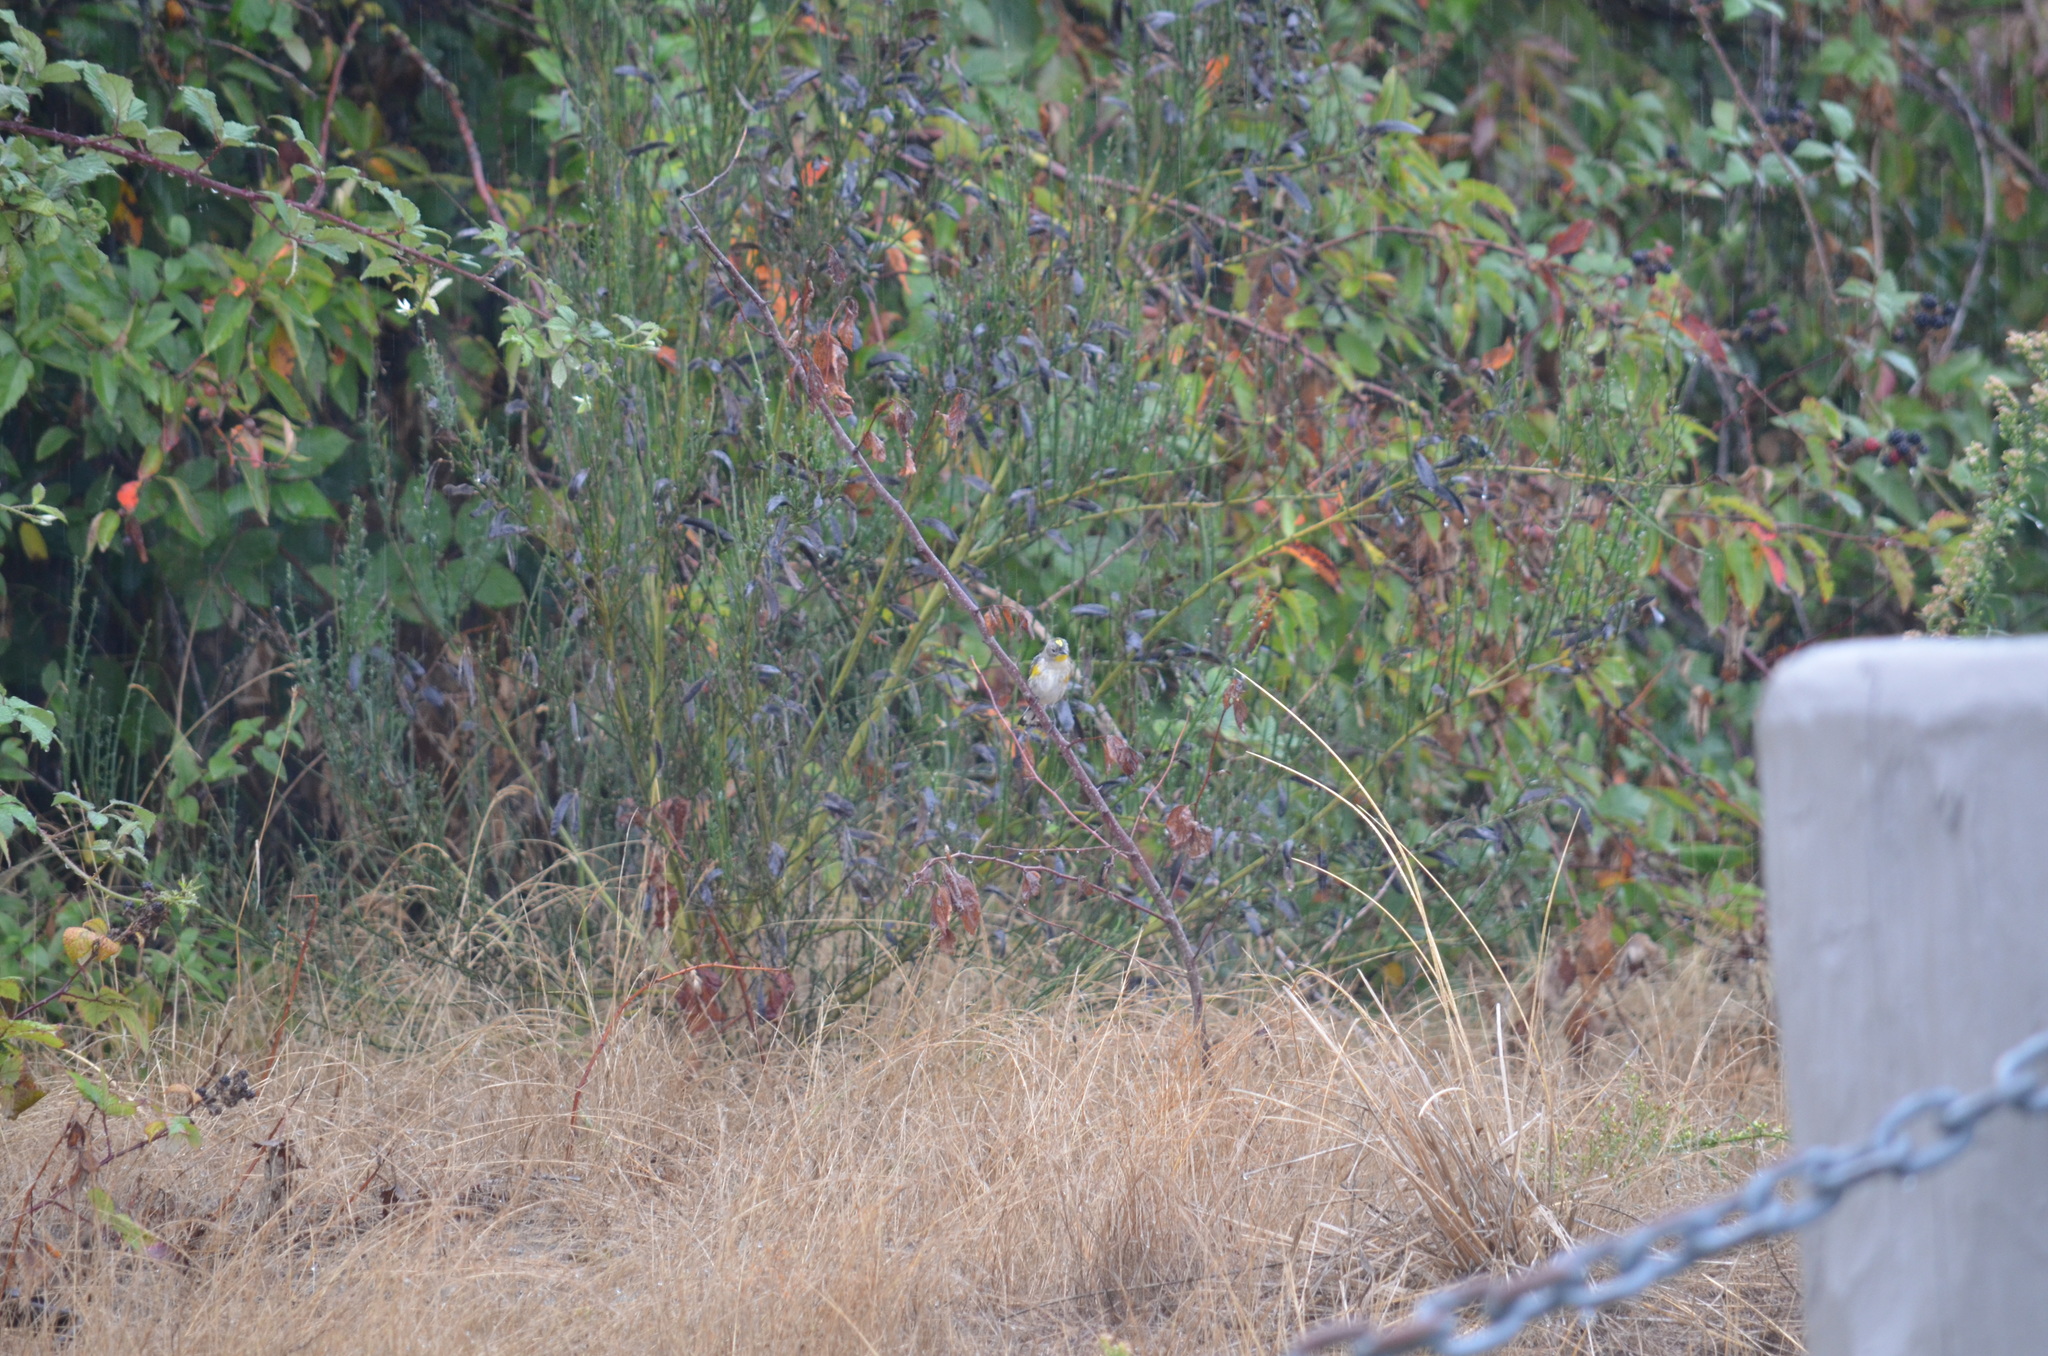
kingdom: Animalia
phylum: Chordata
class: Aves
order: Passeriformes
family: Parulidae
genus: Setophaga
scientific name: Setophaga auduboni
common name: Audubon's warbler
